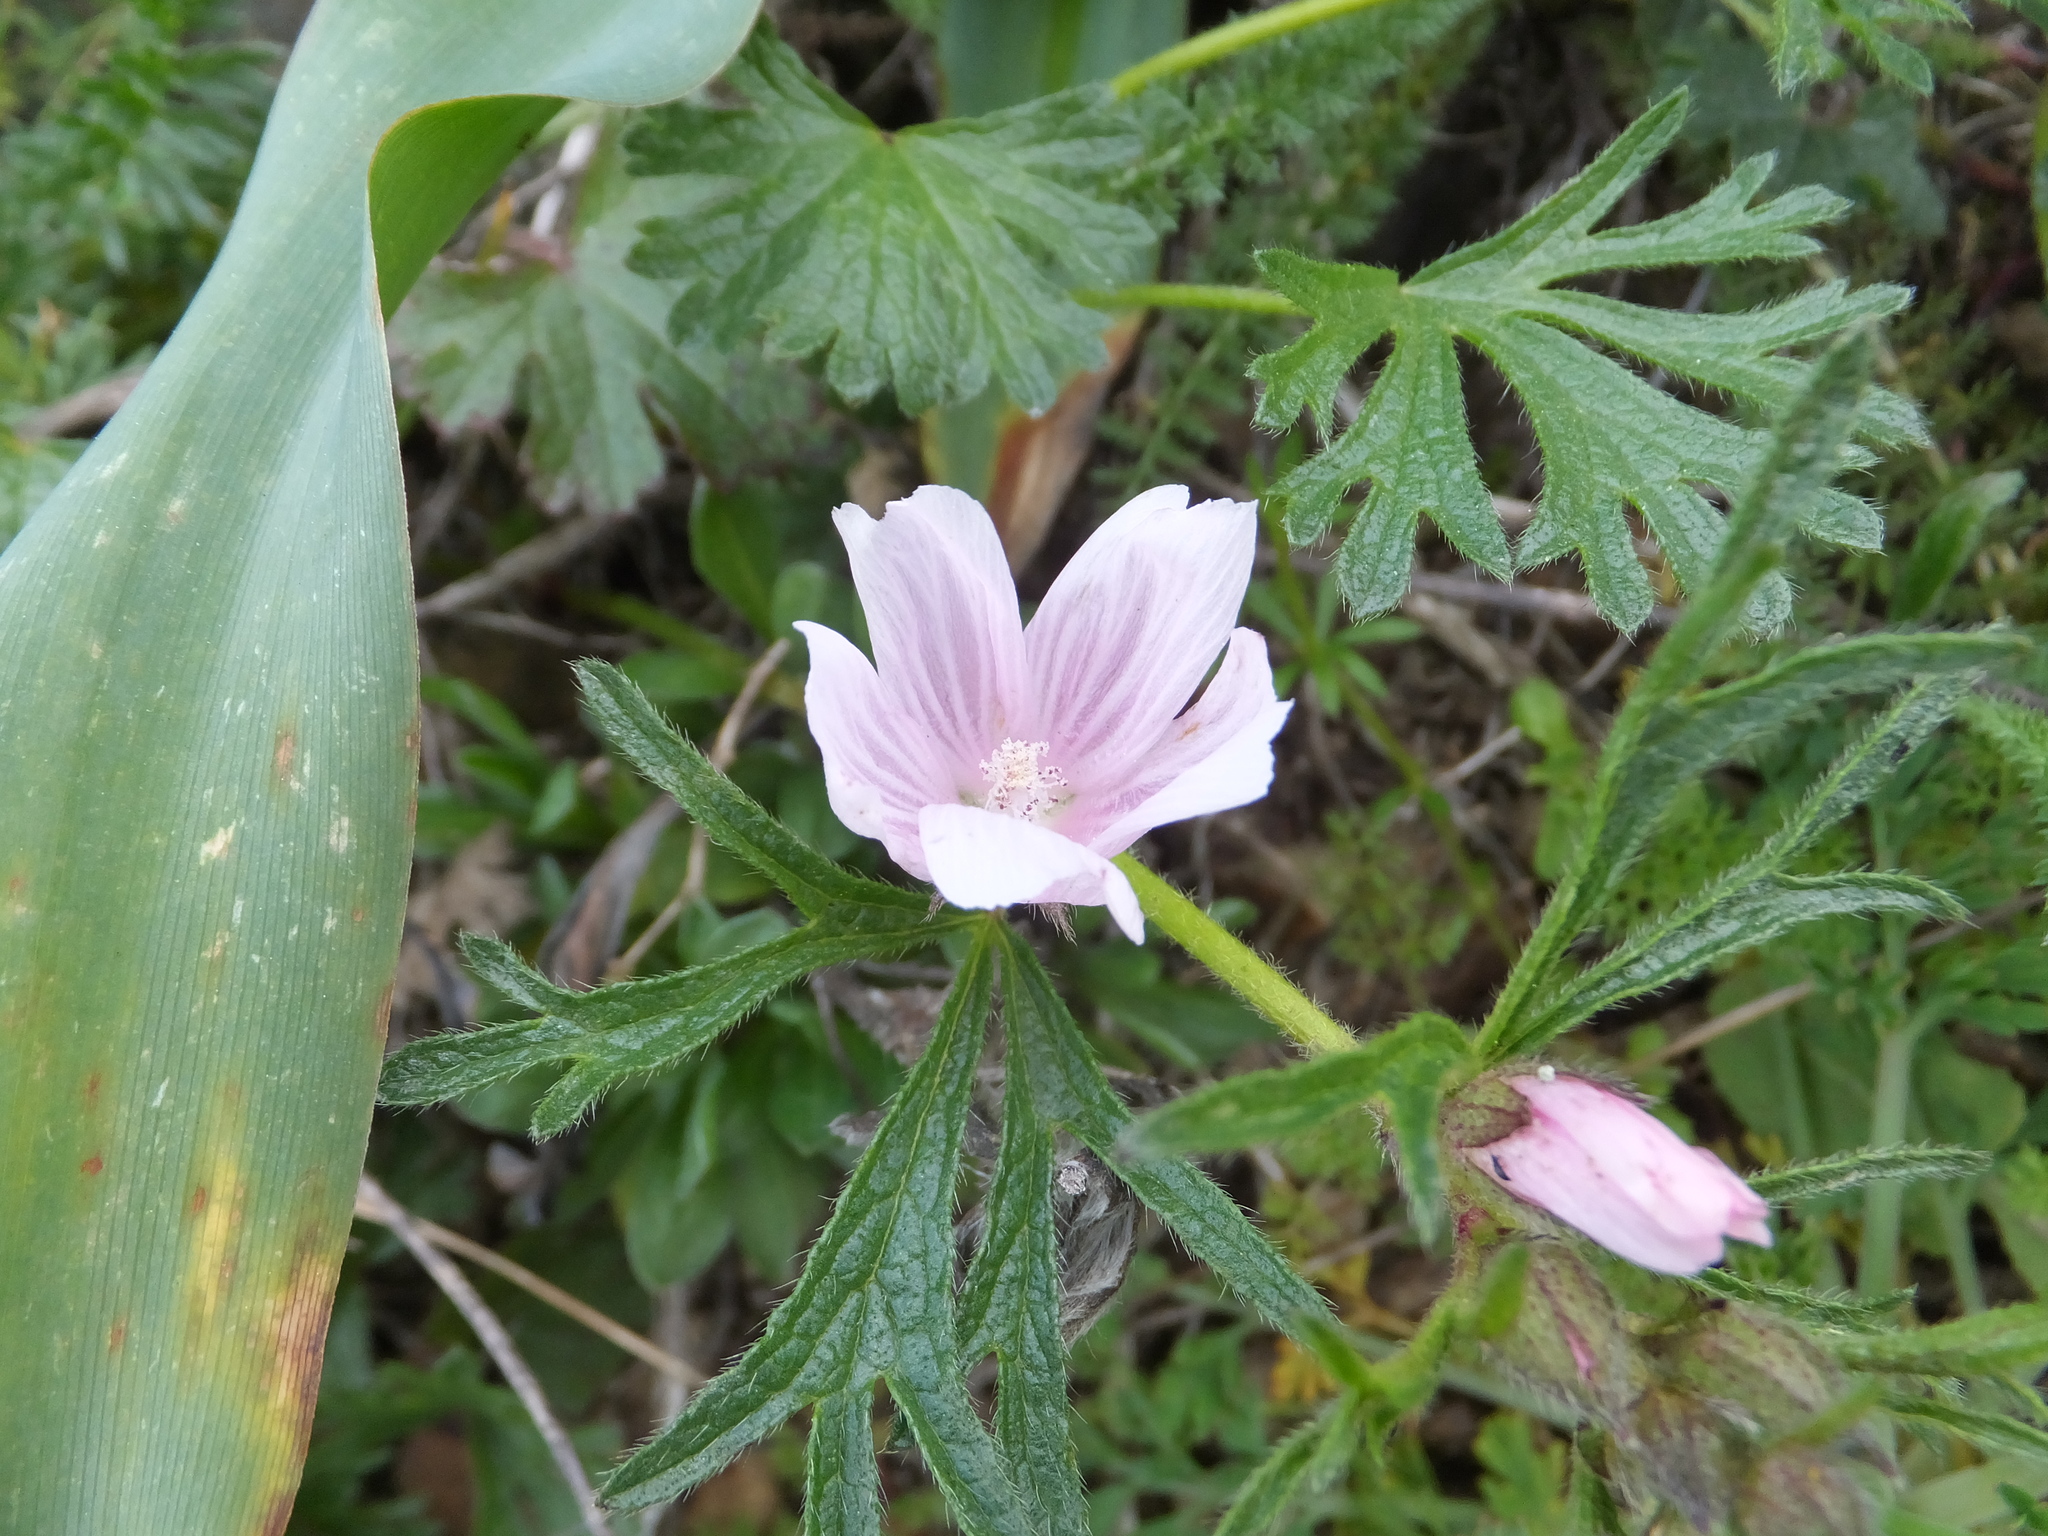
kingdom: Plantae
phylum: Tracheophyta
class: Magnoliopsida
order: Malvales
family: Malvaceae
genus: Sidalcea
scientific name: Sidalcea malviflora
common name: Greek mallow
